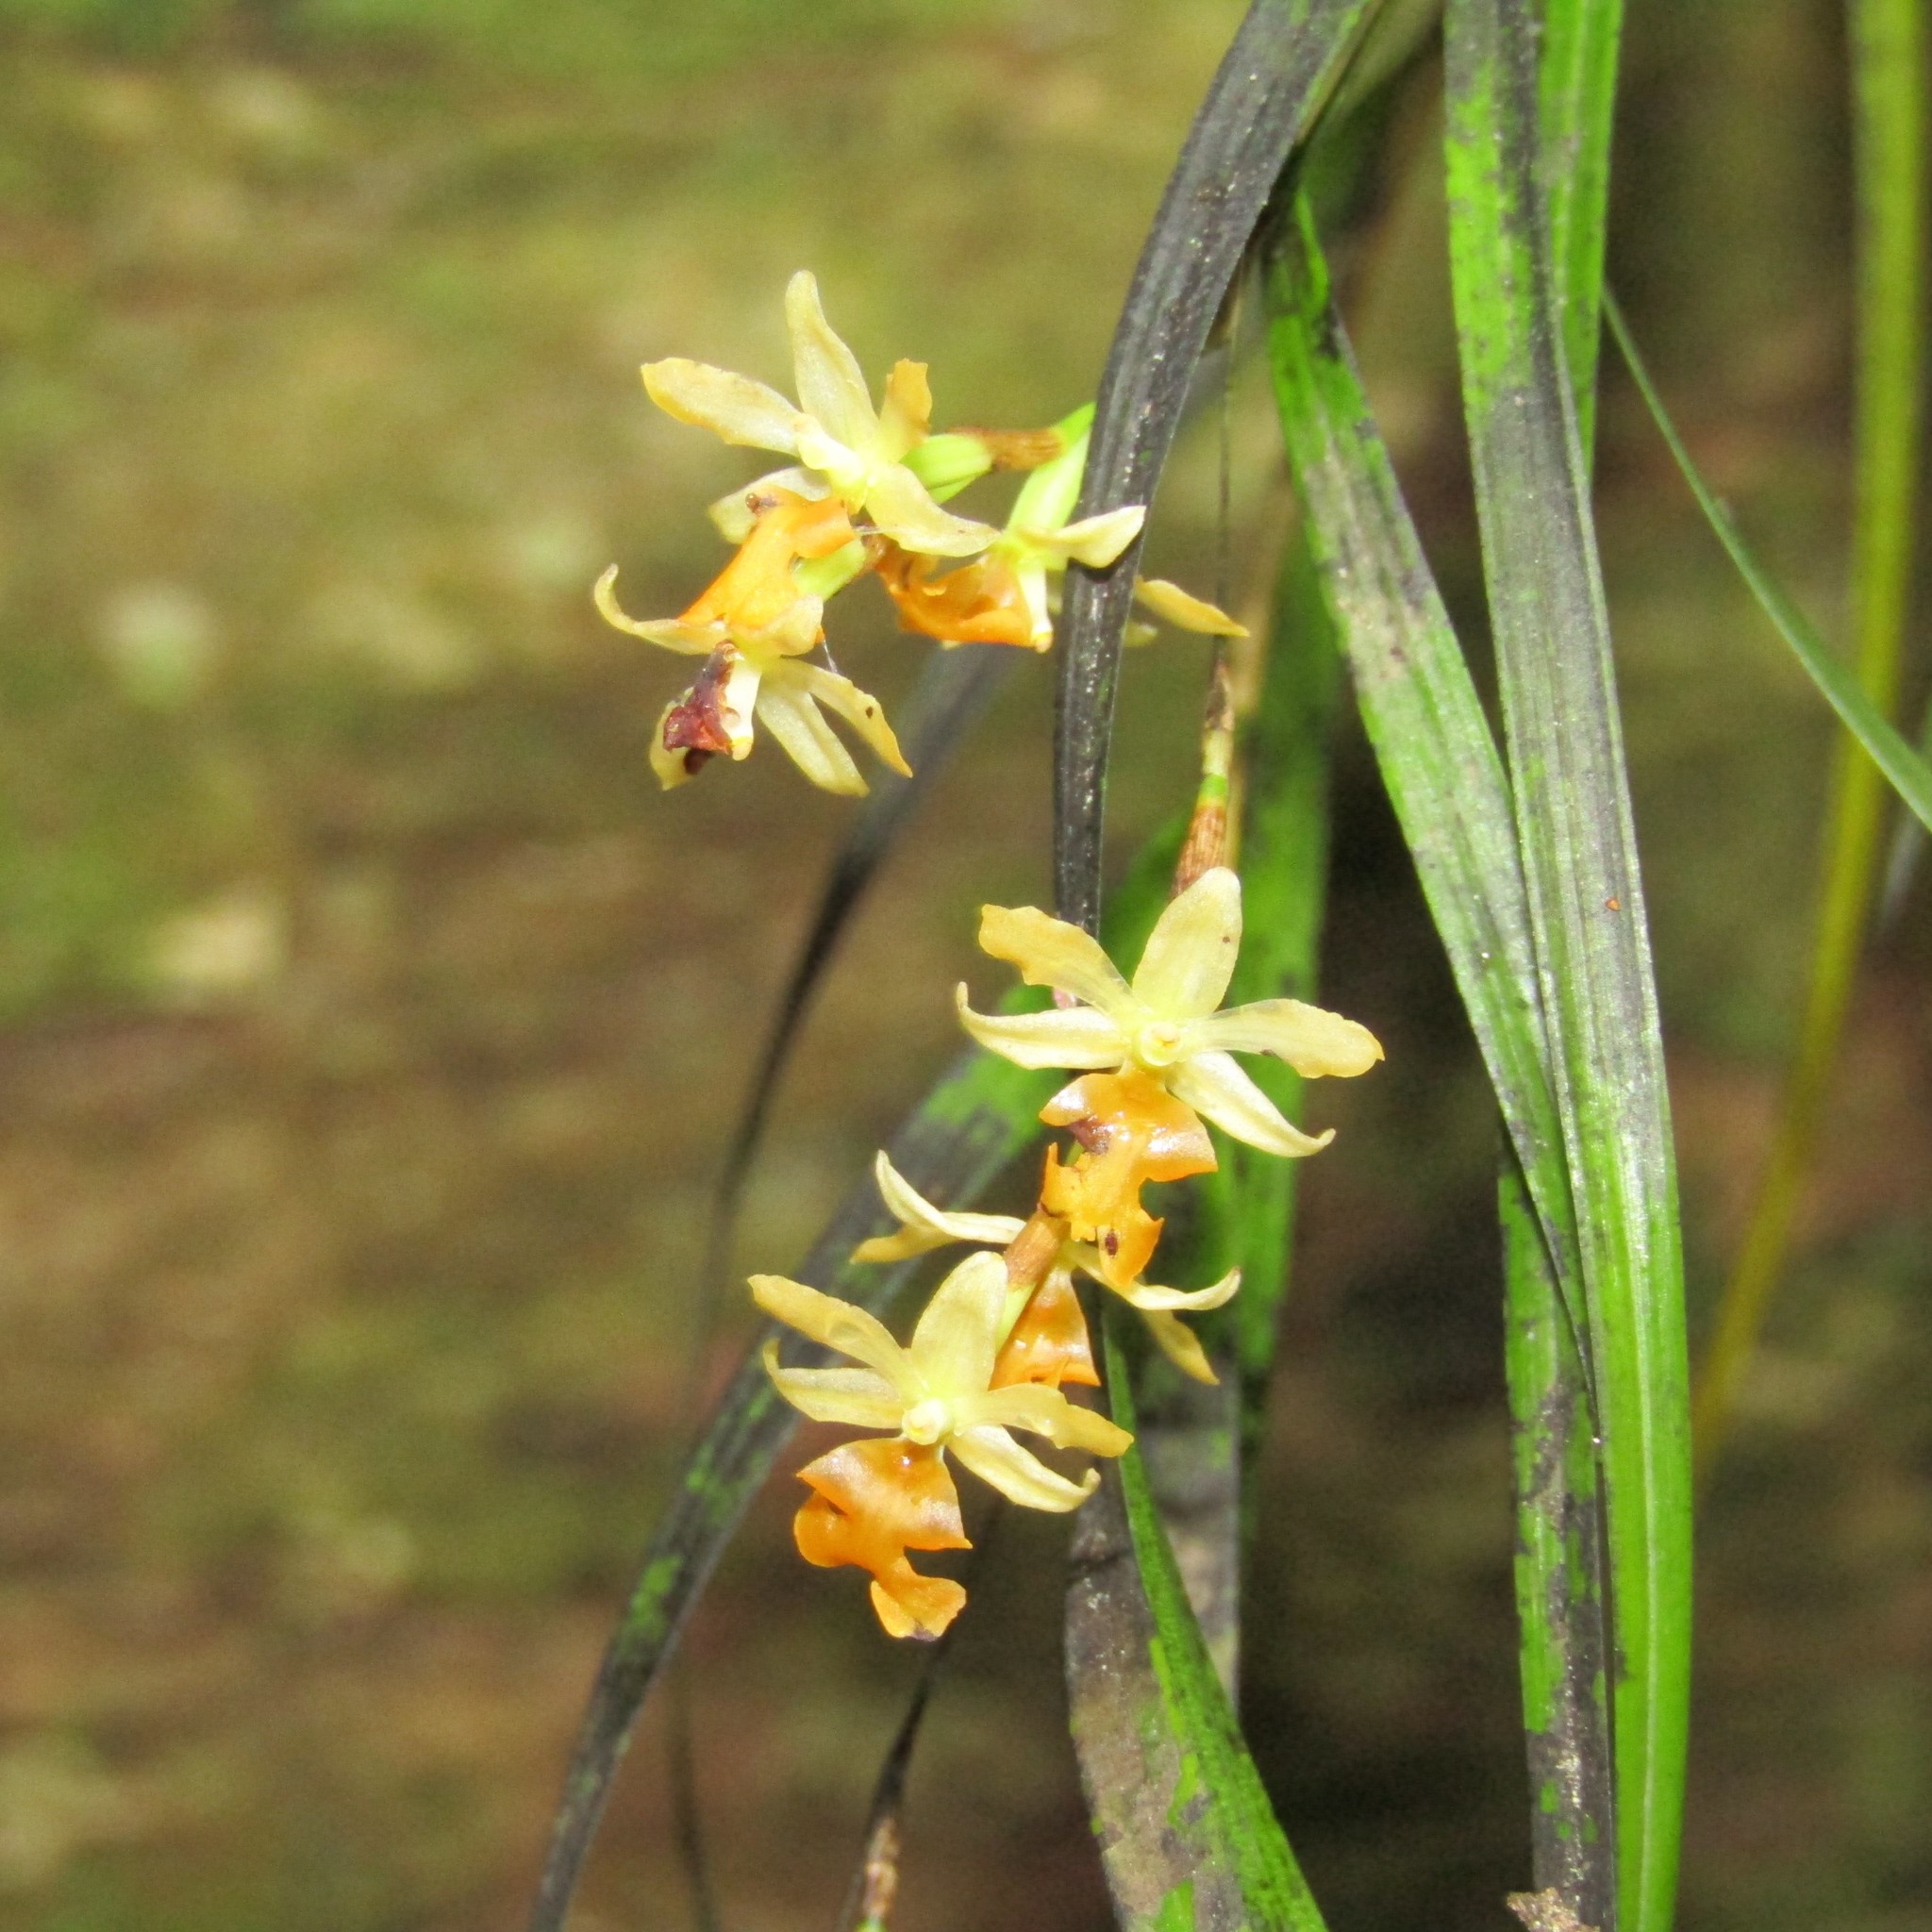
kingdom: Plantae
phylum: Tracheophyta
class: Liliopsida
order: Asparagales
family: Orchidaceae
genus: Earina
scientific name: Earina mucronata
